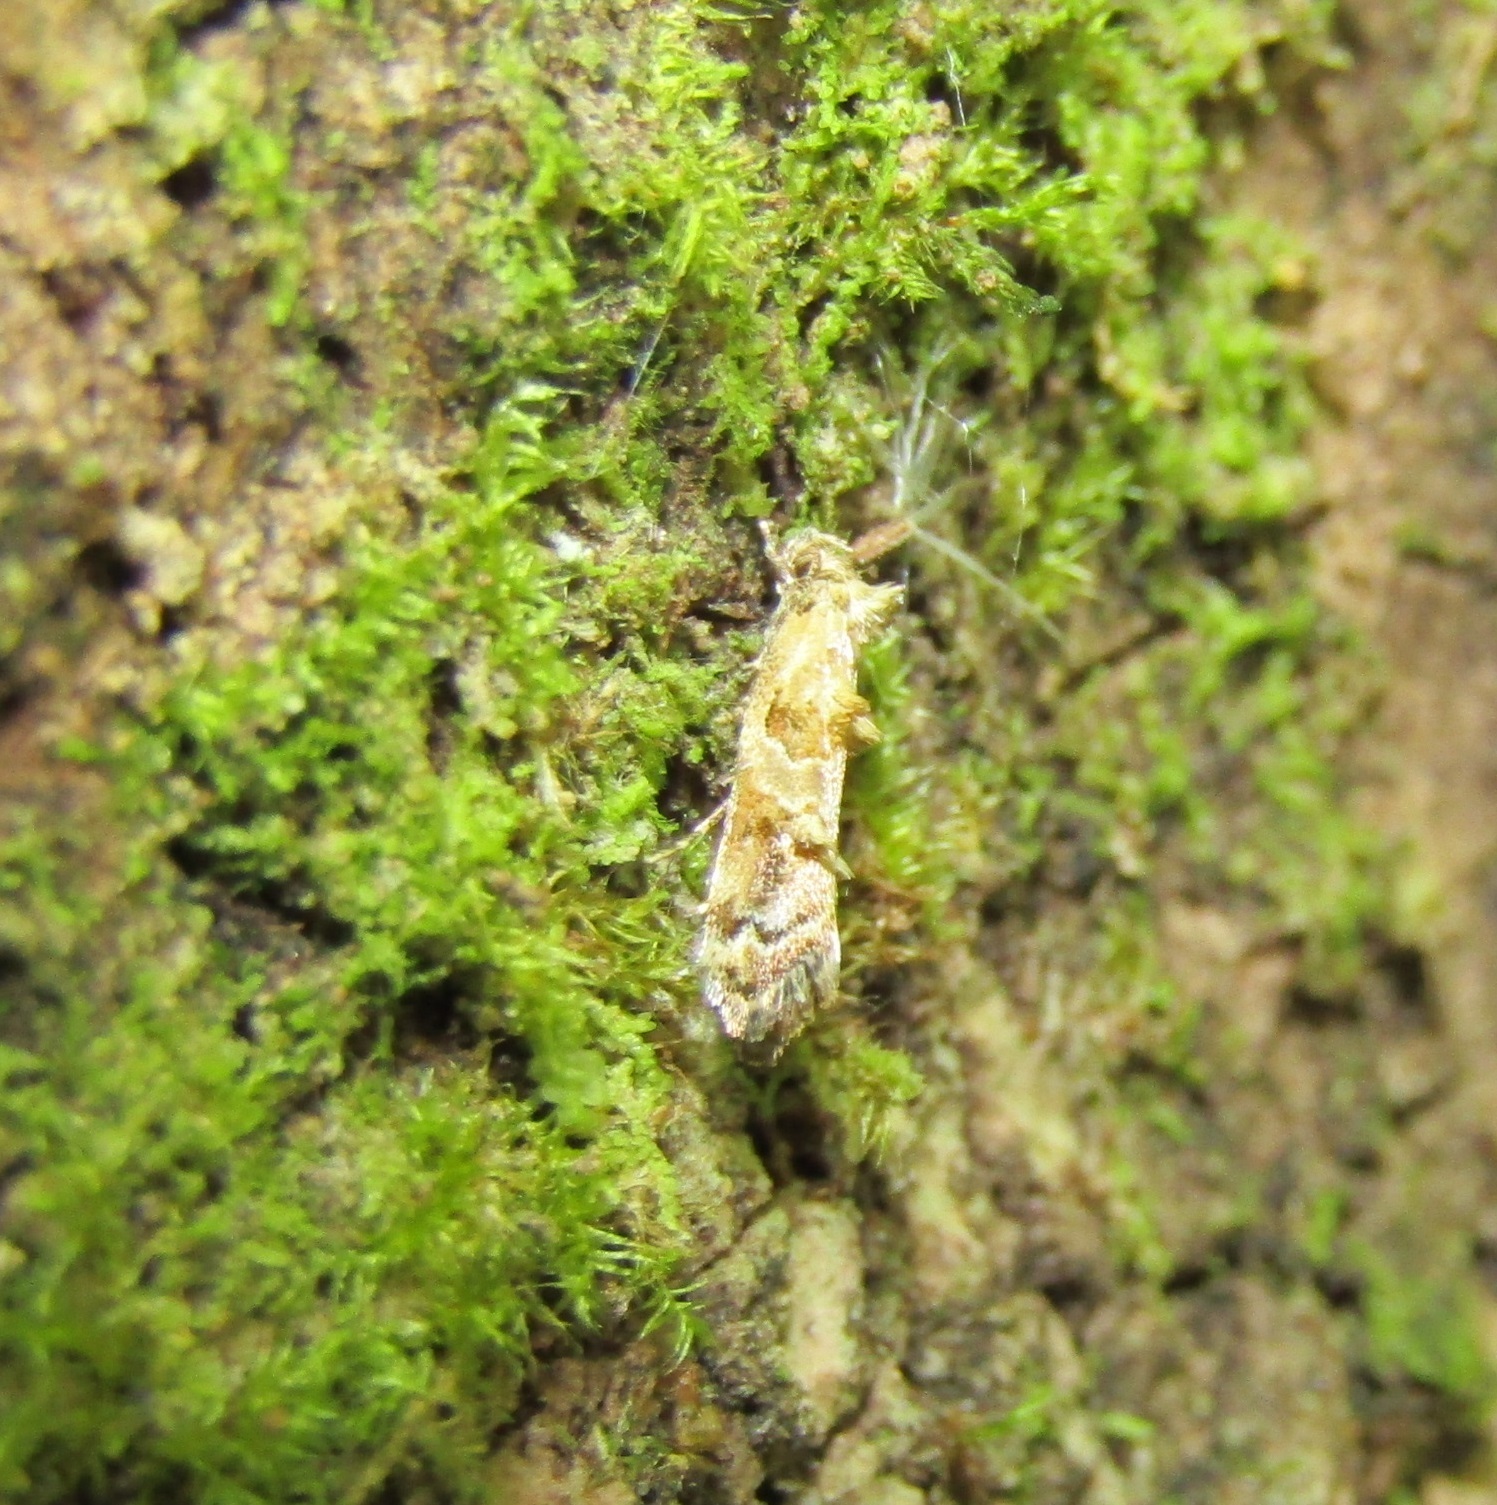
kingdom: Animalia
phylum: Arthropoda
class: Insecta
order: Lepidoptera
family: Oecophoridae
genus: Trachypepla
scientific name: Trachypepla protochlora
